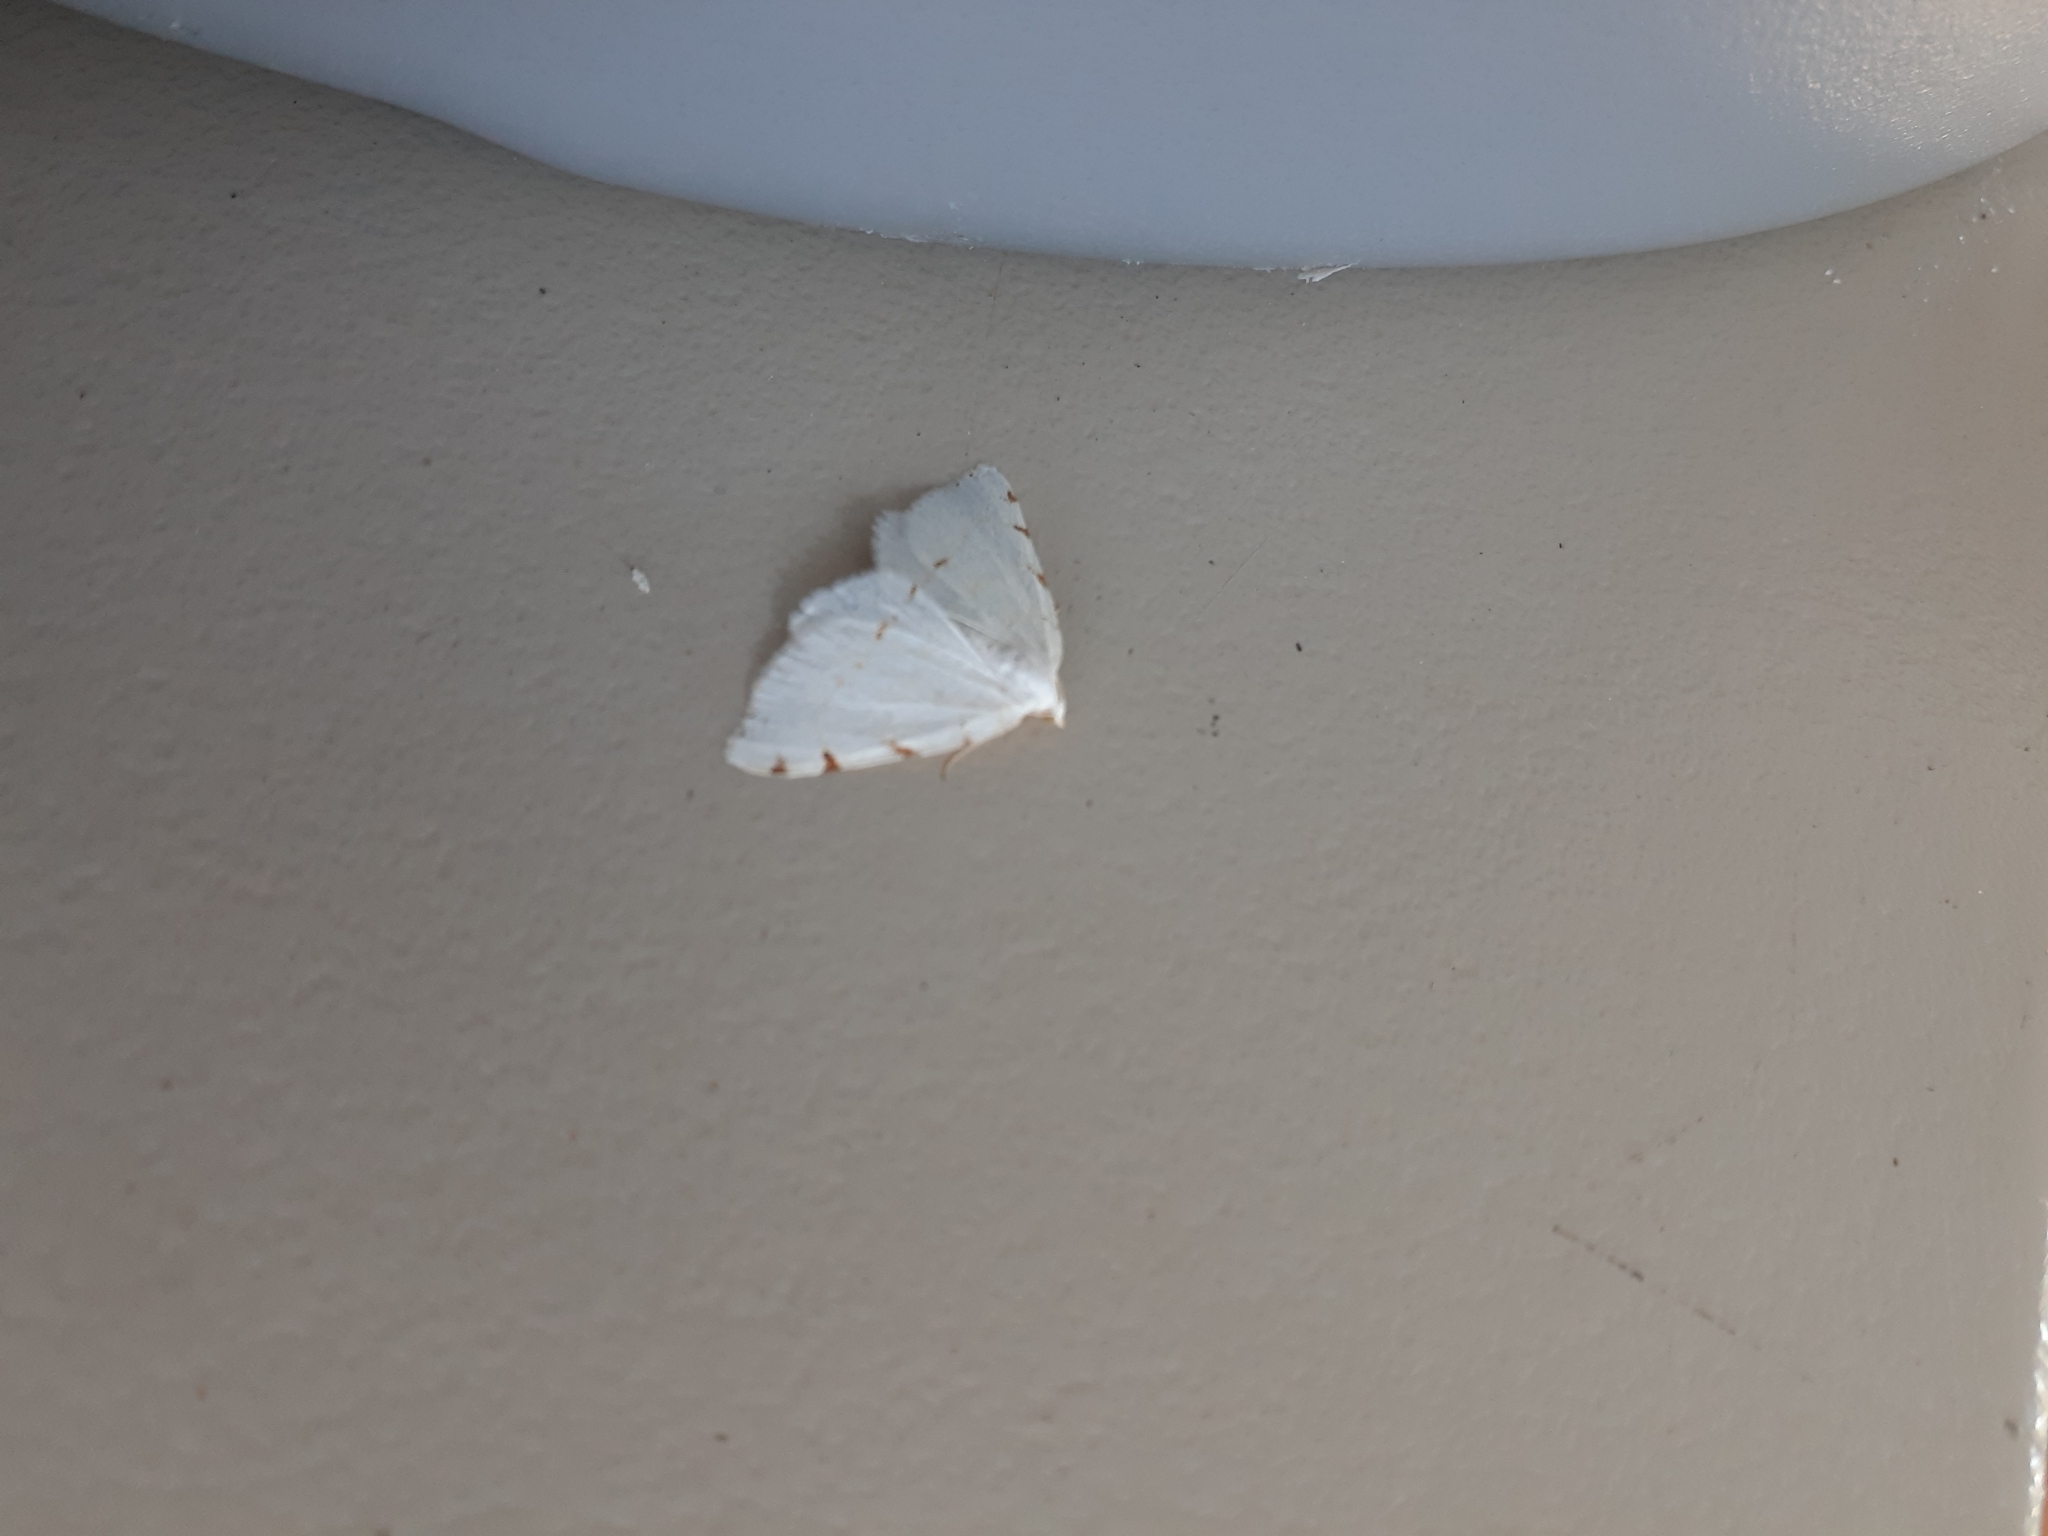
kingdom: Animalia
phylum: Arthropoda
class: Insecta
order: Lepidoptera
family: Geometridae
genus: Macaria
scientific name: Macaria pustularia
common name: Lesser maple spanworm moth
